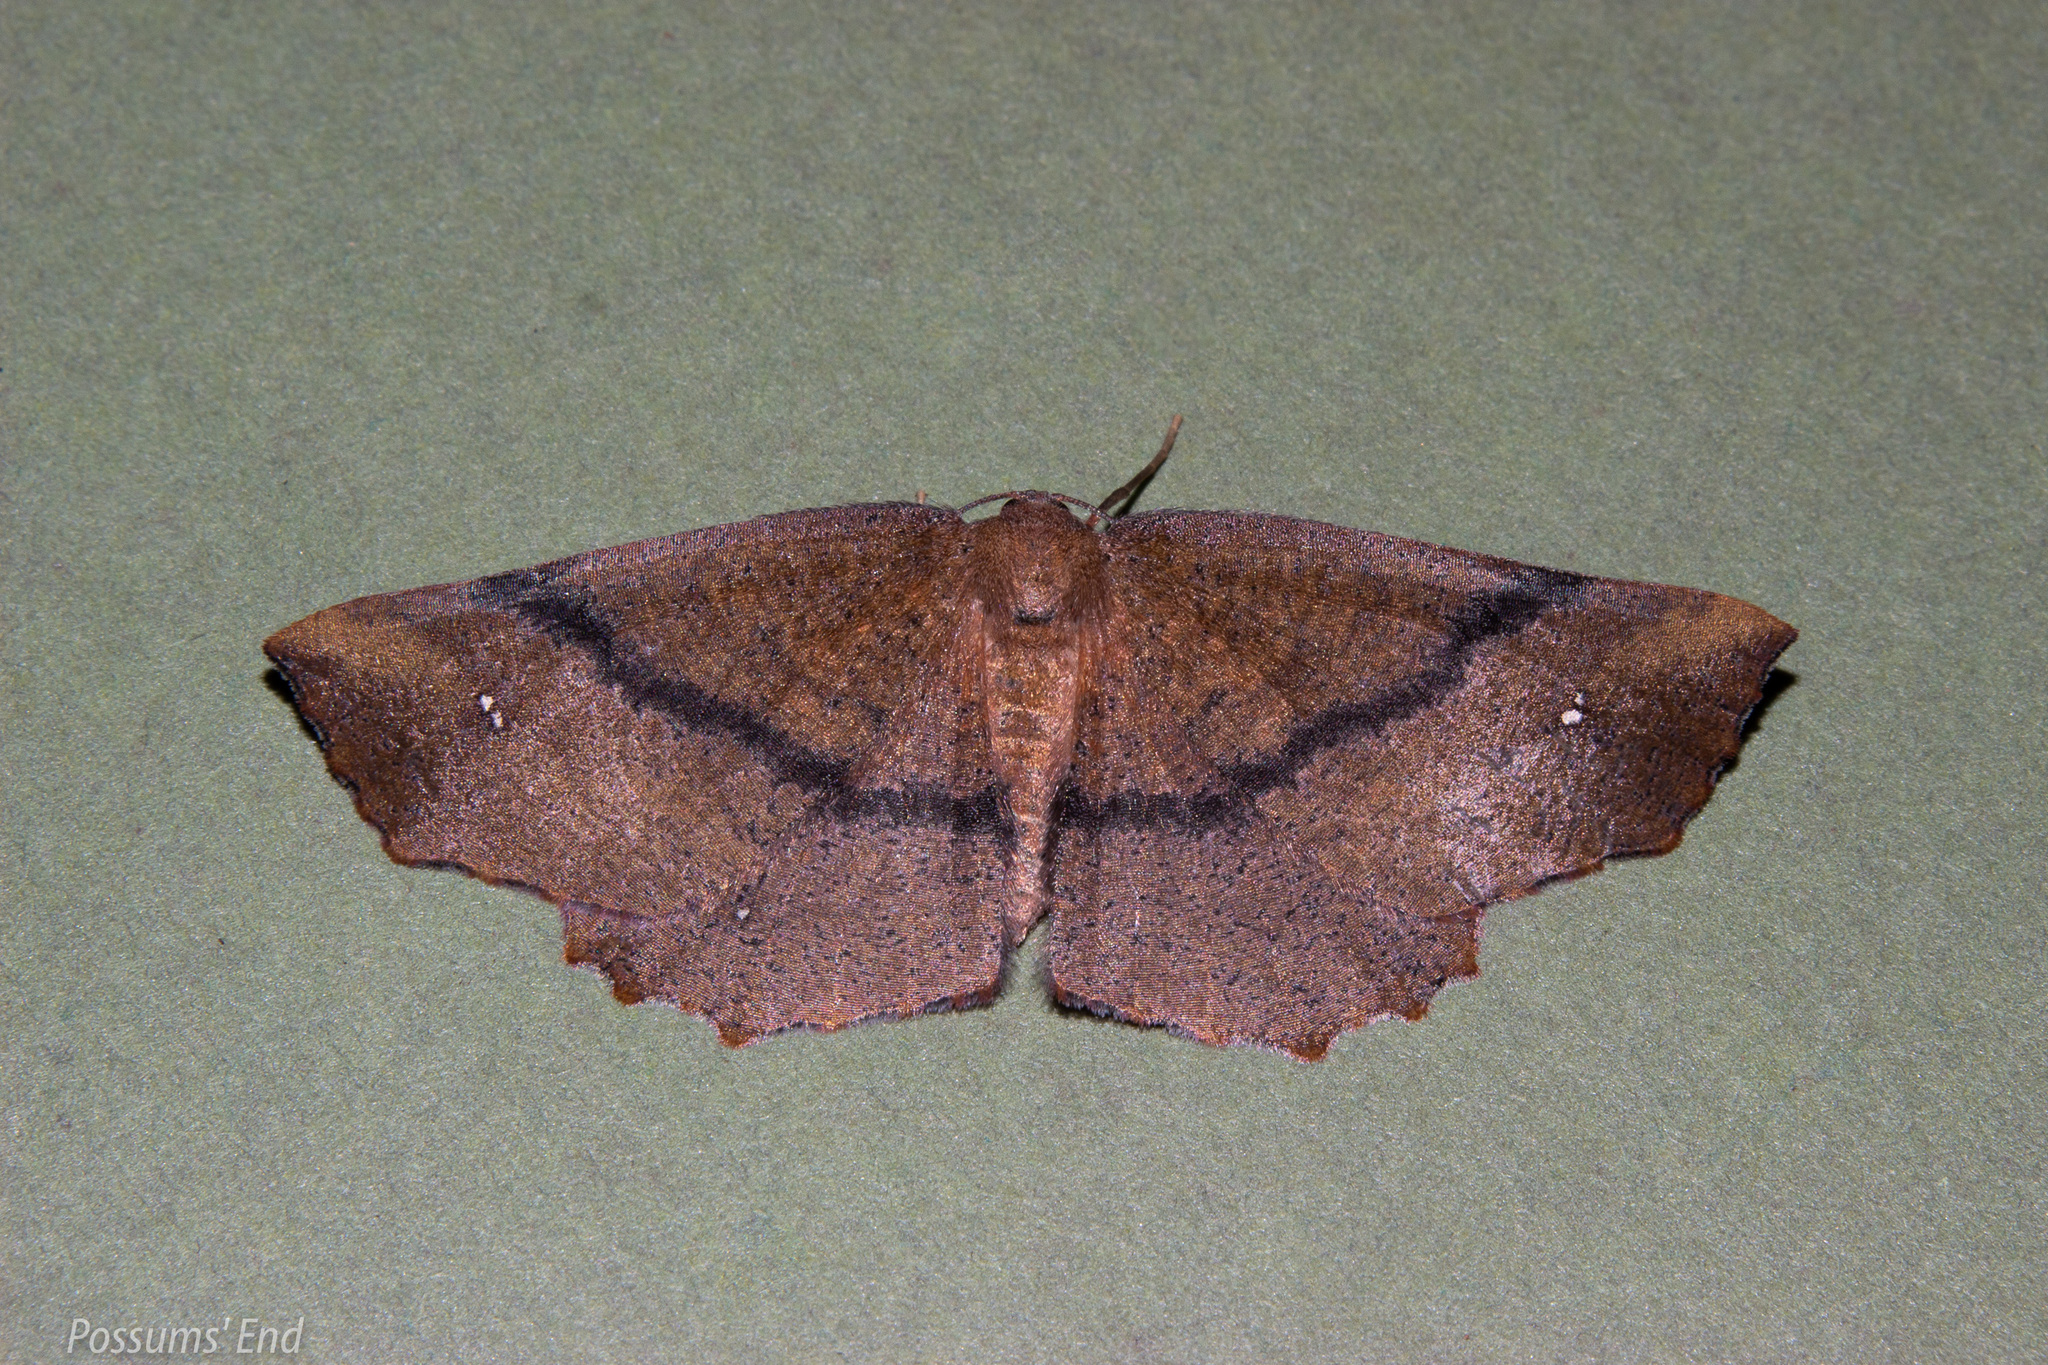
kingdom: Animalia
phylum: Arthropoda
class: Insecta
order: Lepidoptera
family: Geometridae
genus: Xyridacma
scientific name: Xyridacma ustaria
